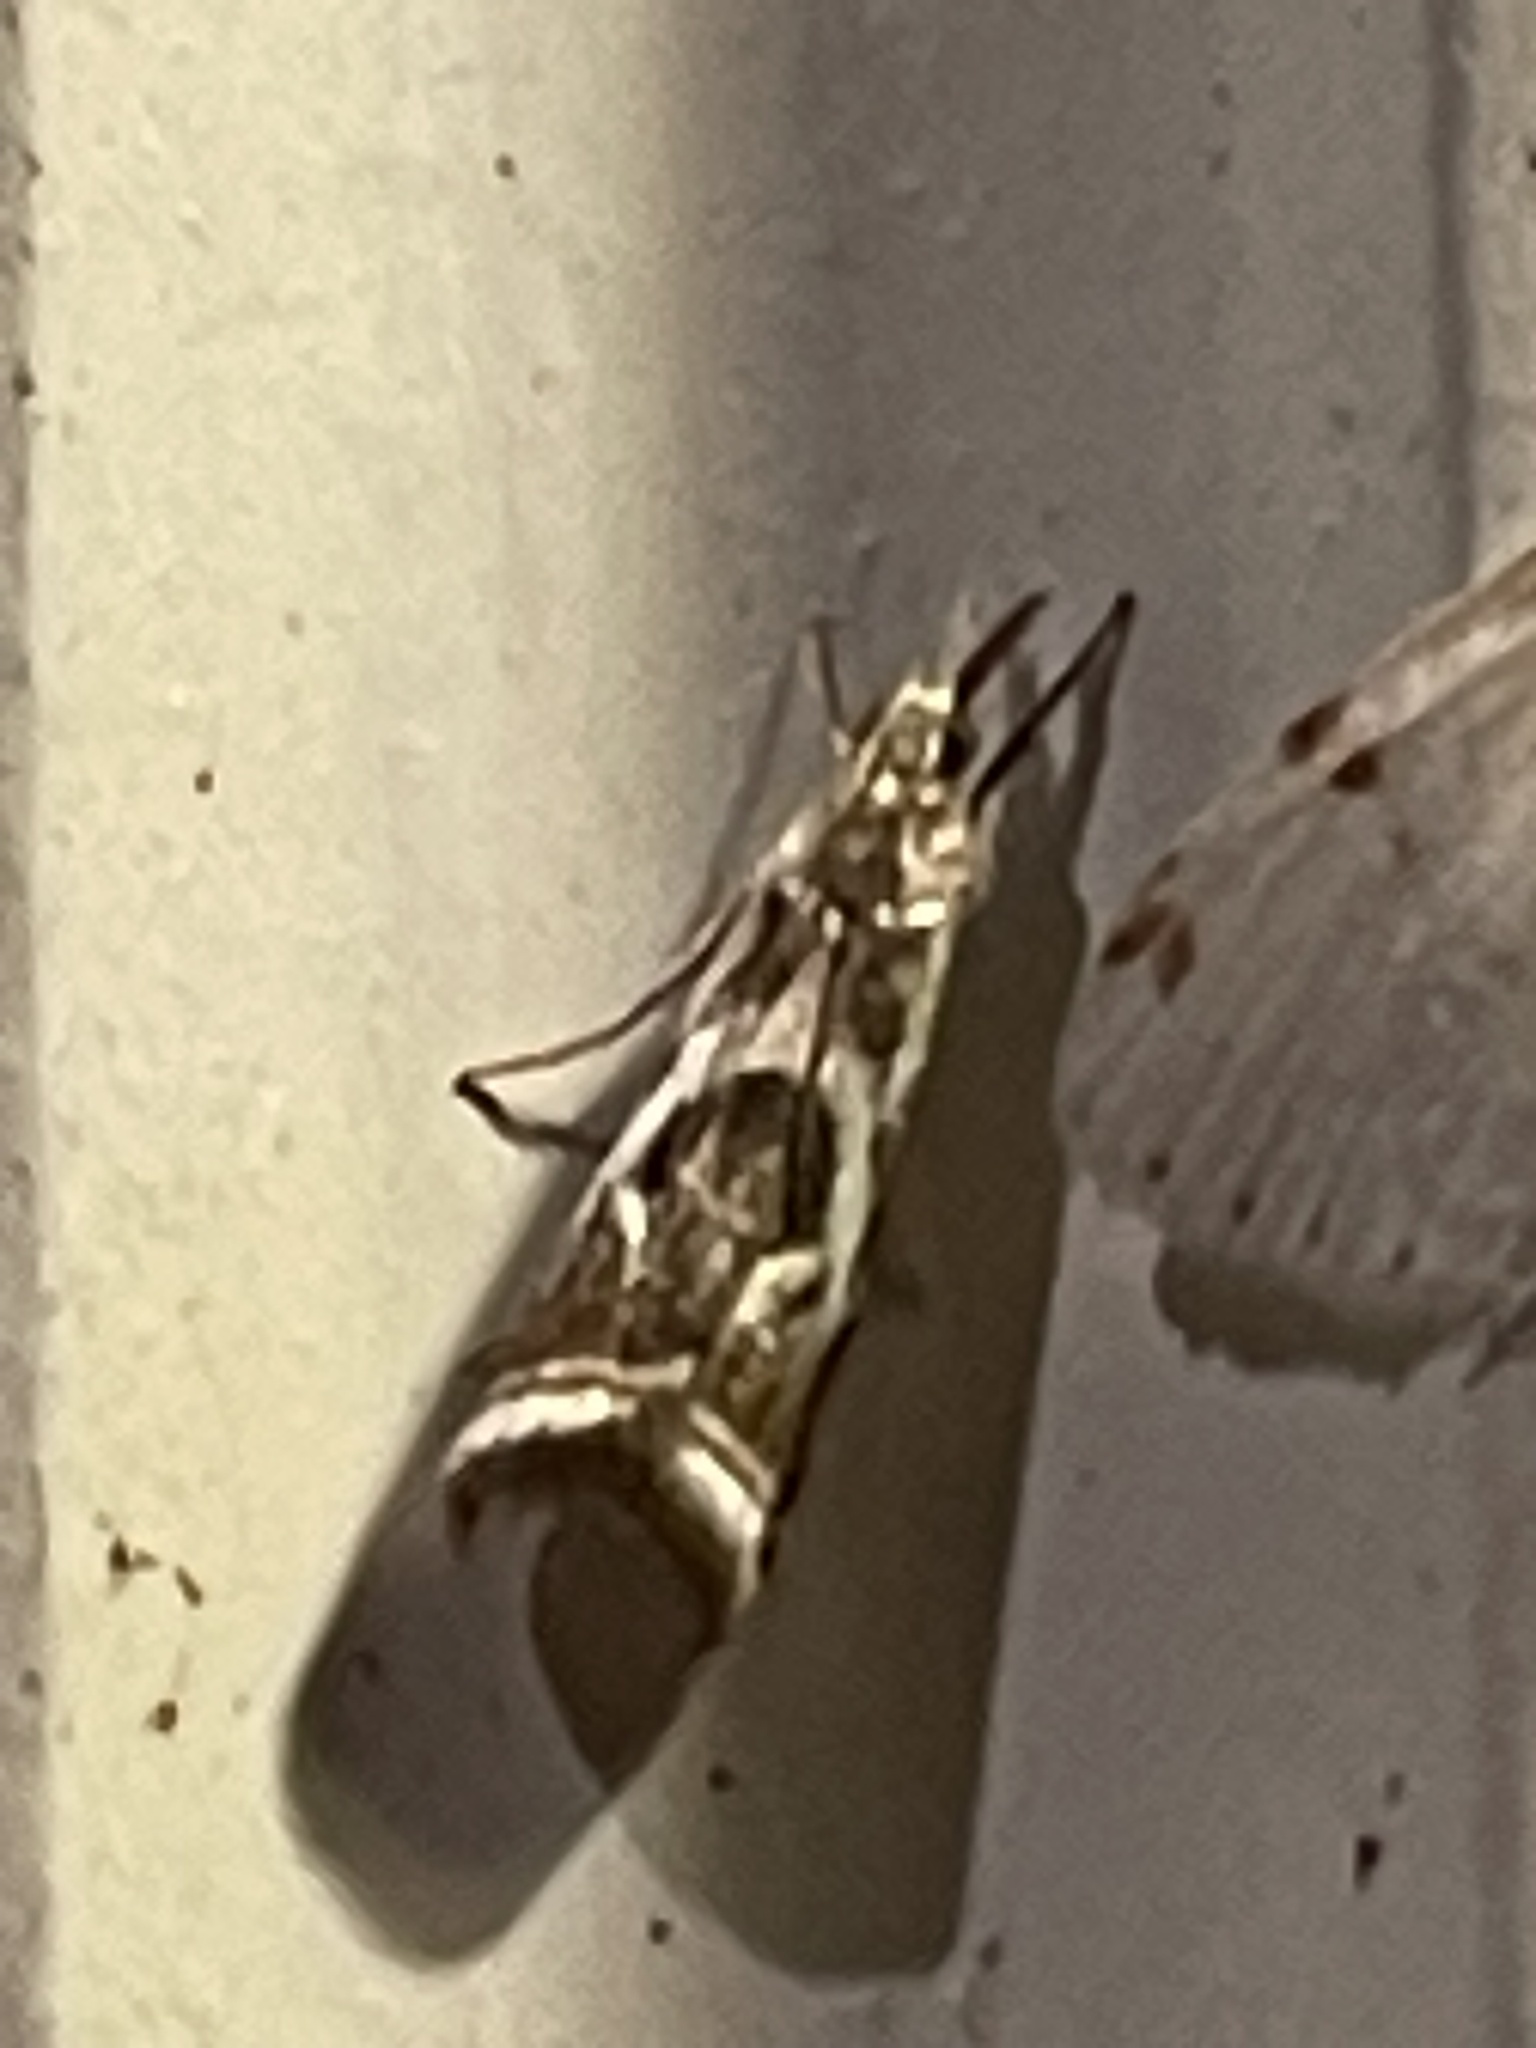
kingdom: Animalia
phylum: Arthropoda
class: Insecta
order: Lepidoptera
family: Crambidae
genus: Microcrambus
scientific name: Microcrambus elegans
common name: Elegant grass-veneer
